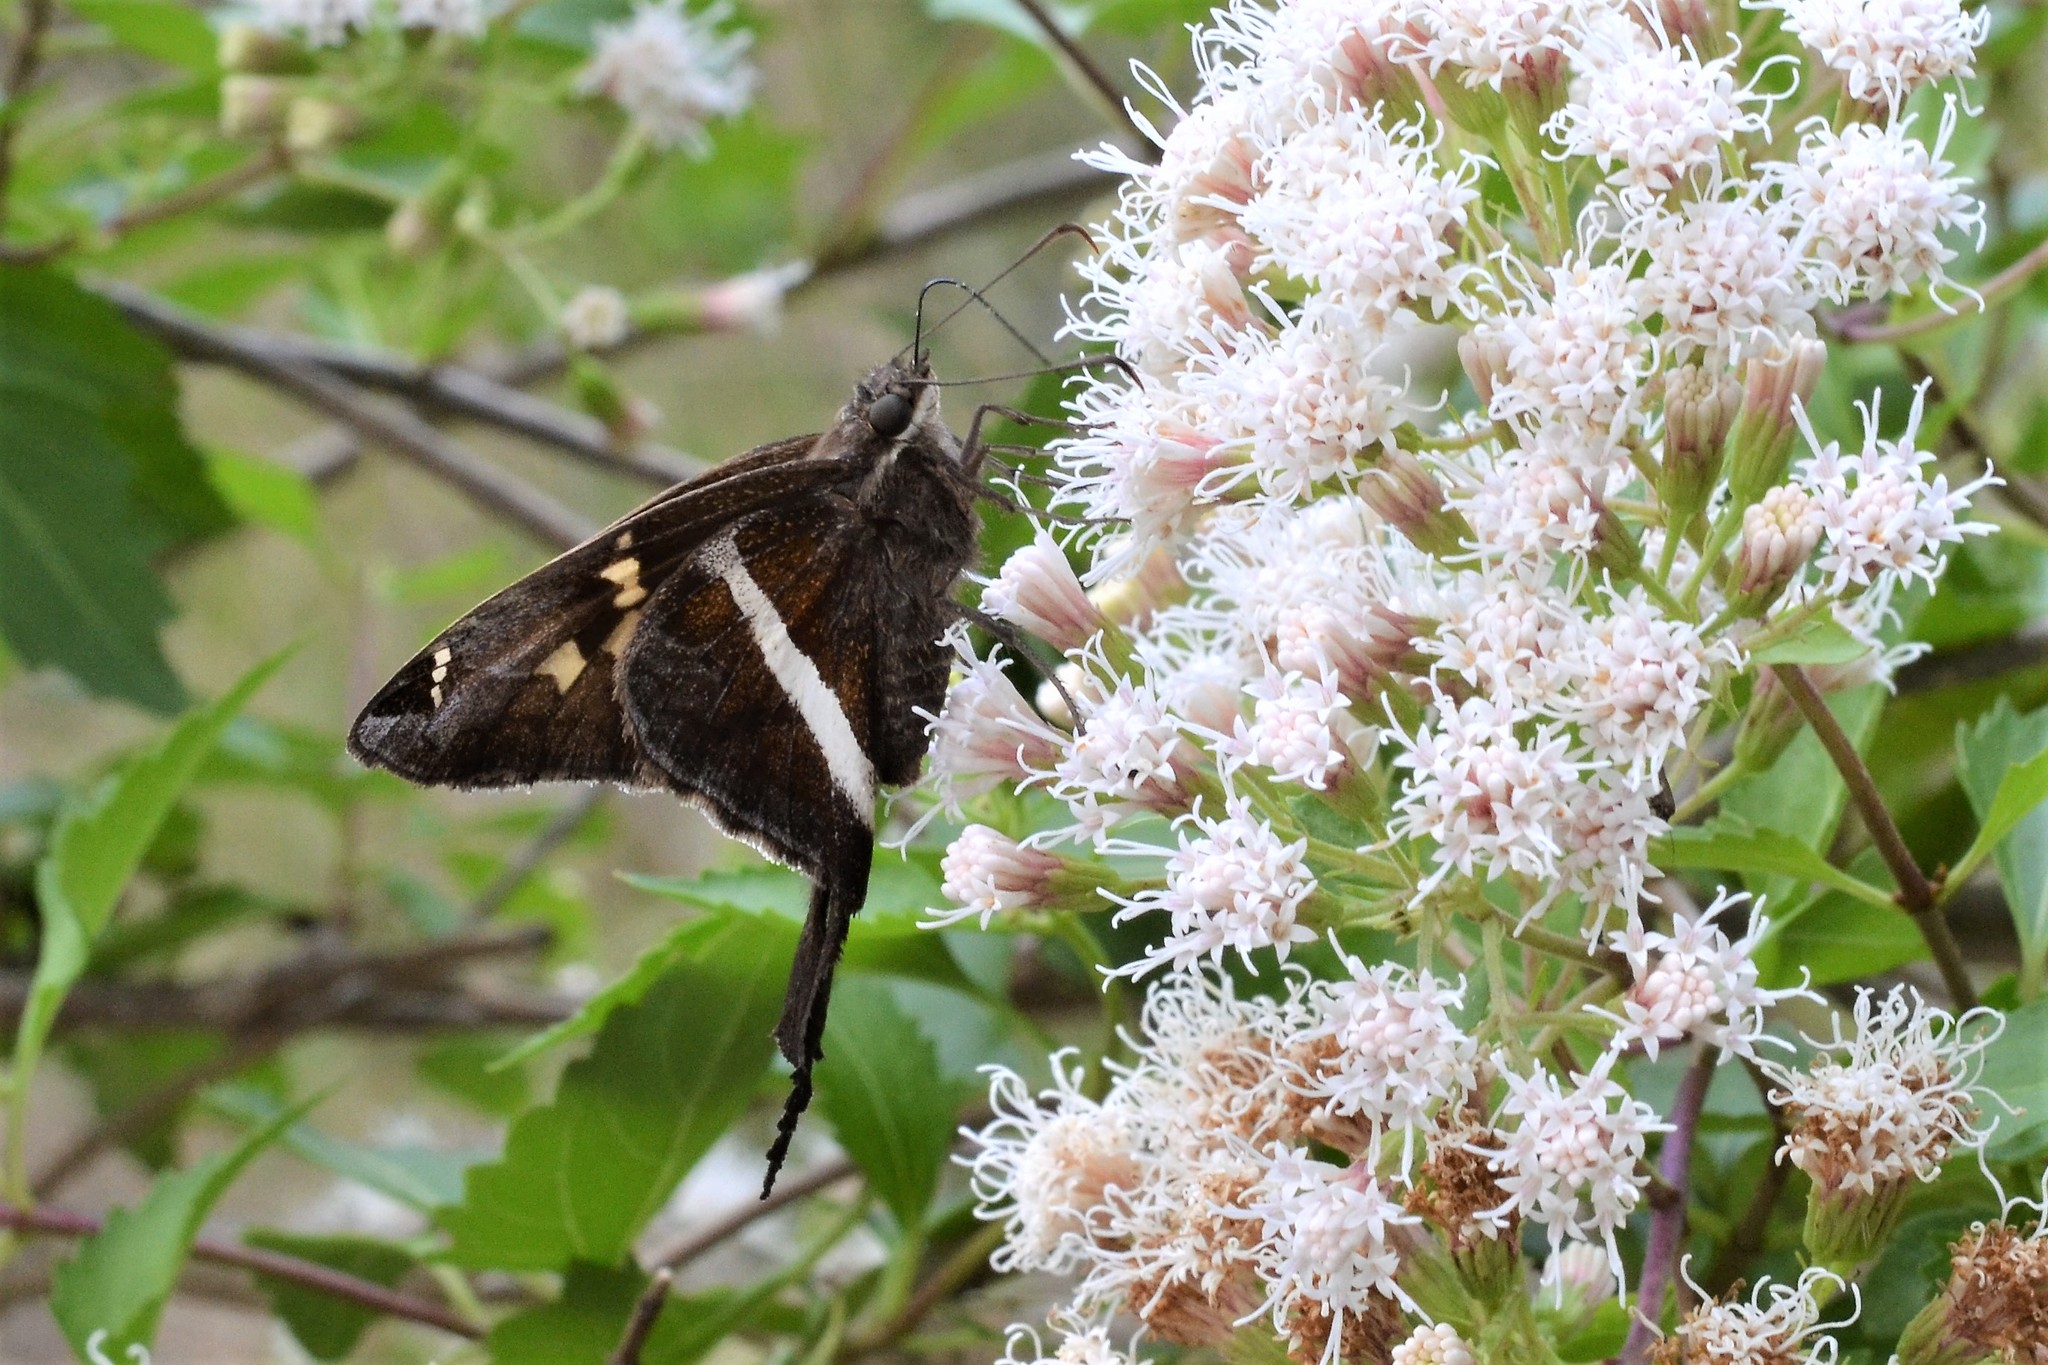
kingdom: Animalia
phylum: Arthropoda
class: Insecta
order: Lepidoptera
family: Hesperiidae
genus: Chioides
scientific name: Chioides catillus
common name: Silverbanded skipper
